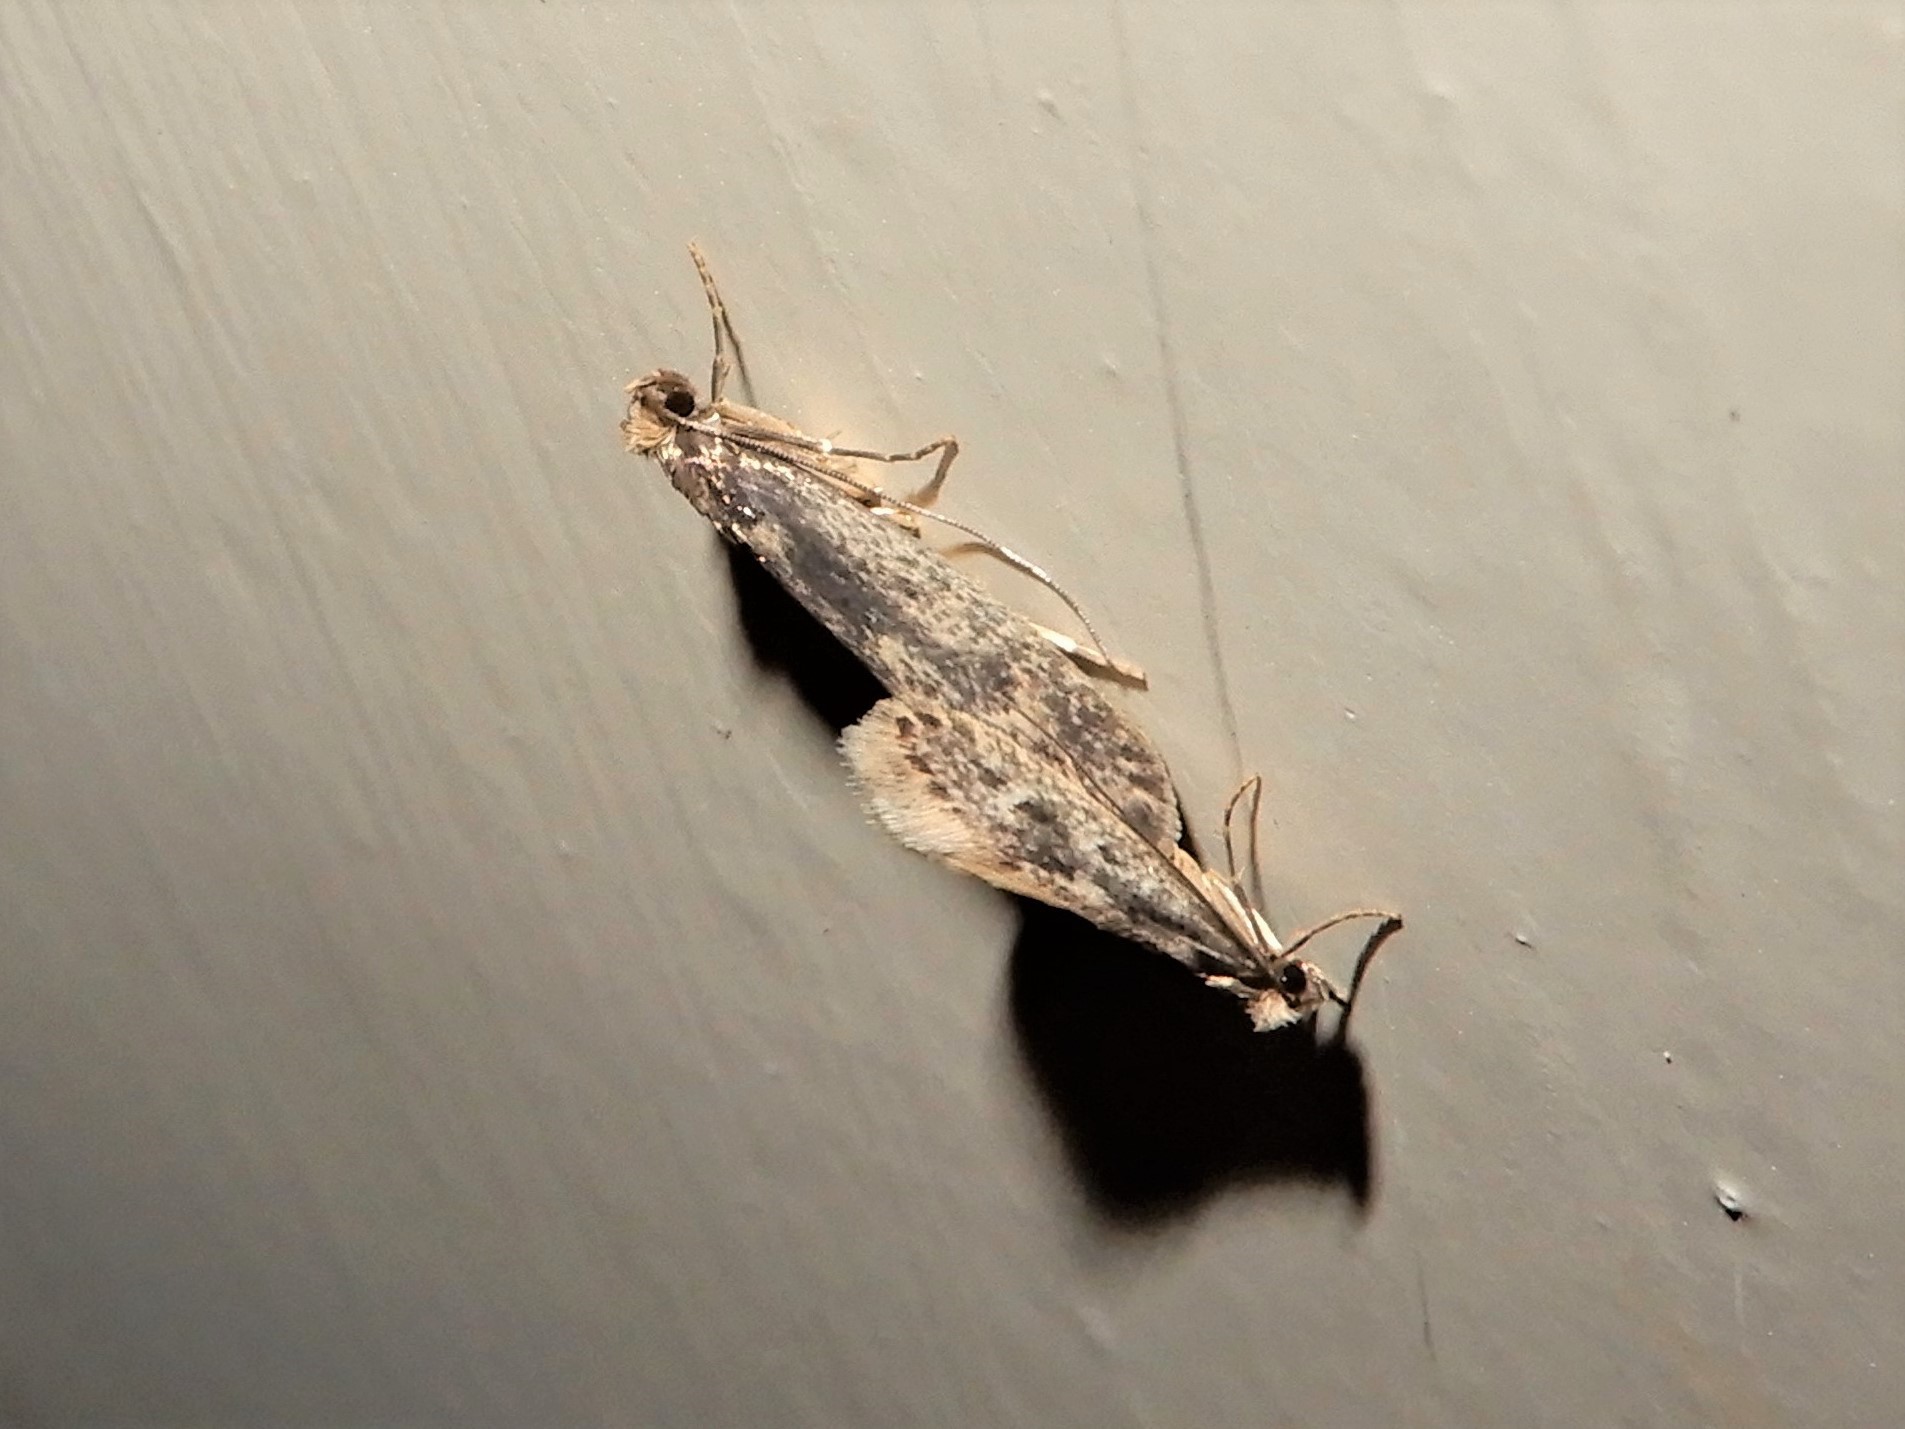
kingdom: Animalia
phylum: Arthropoda
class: Insecta
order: Lepidoptera
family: Tineidae
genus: Tinea
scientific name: Tinea pallescentella
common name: Large pale clothes moth
